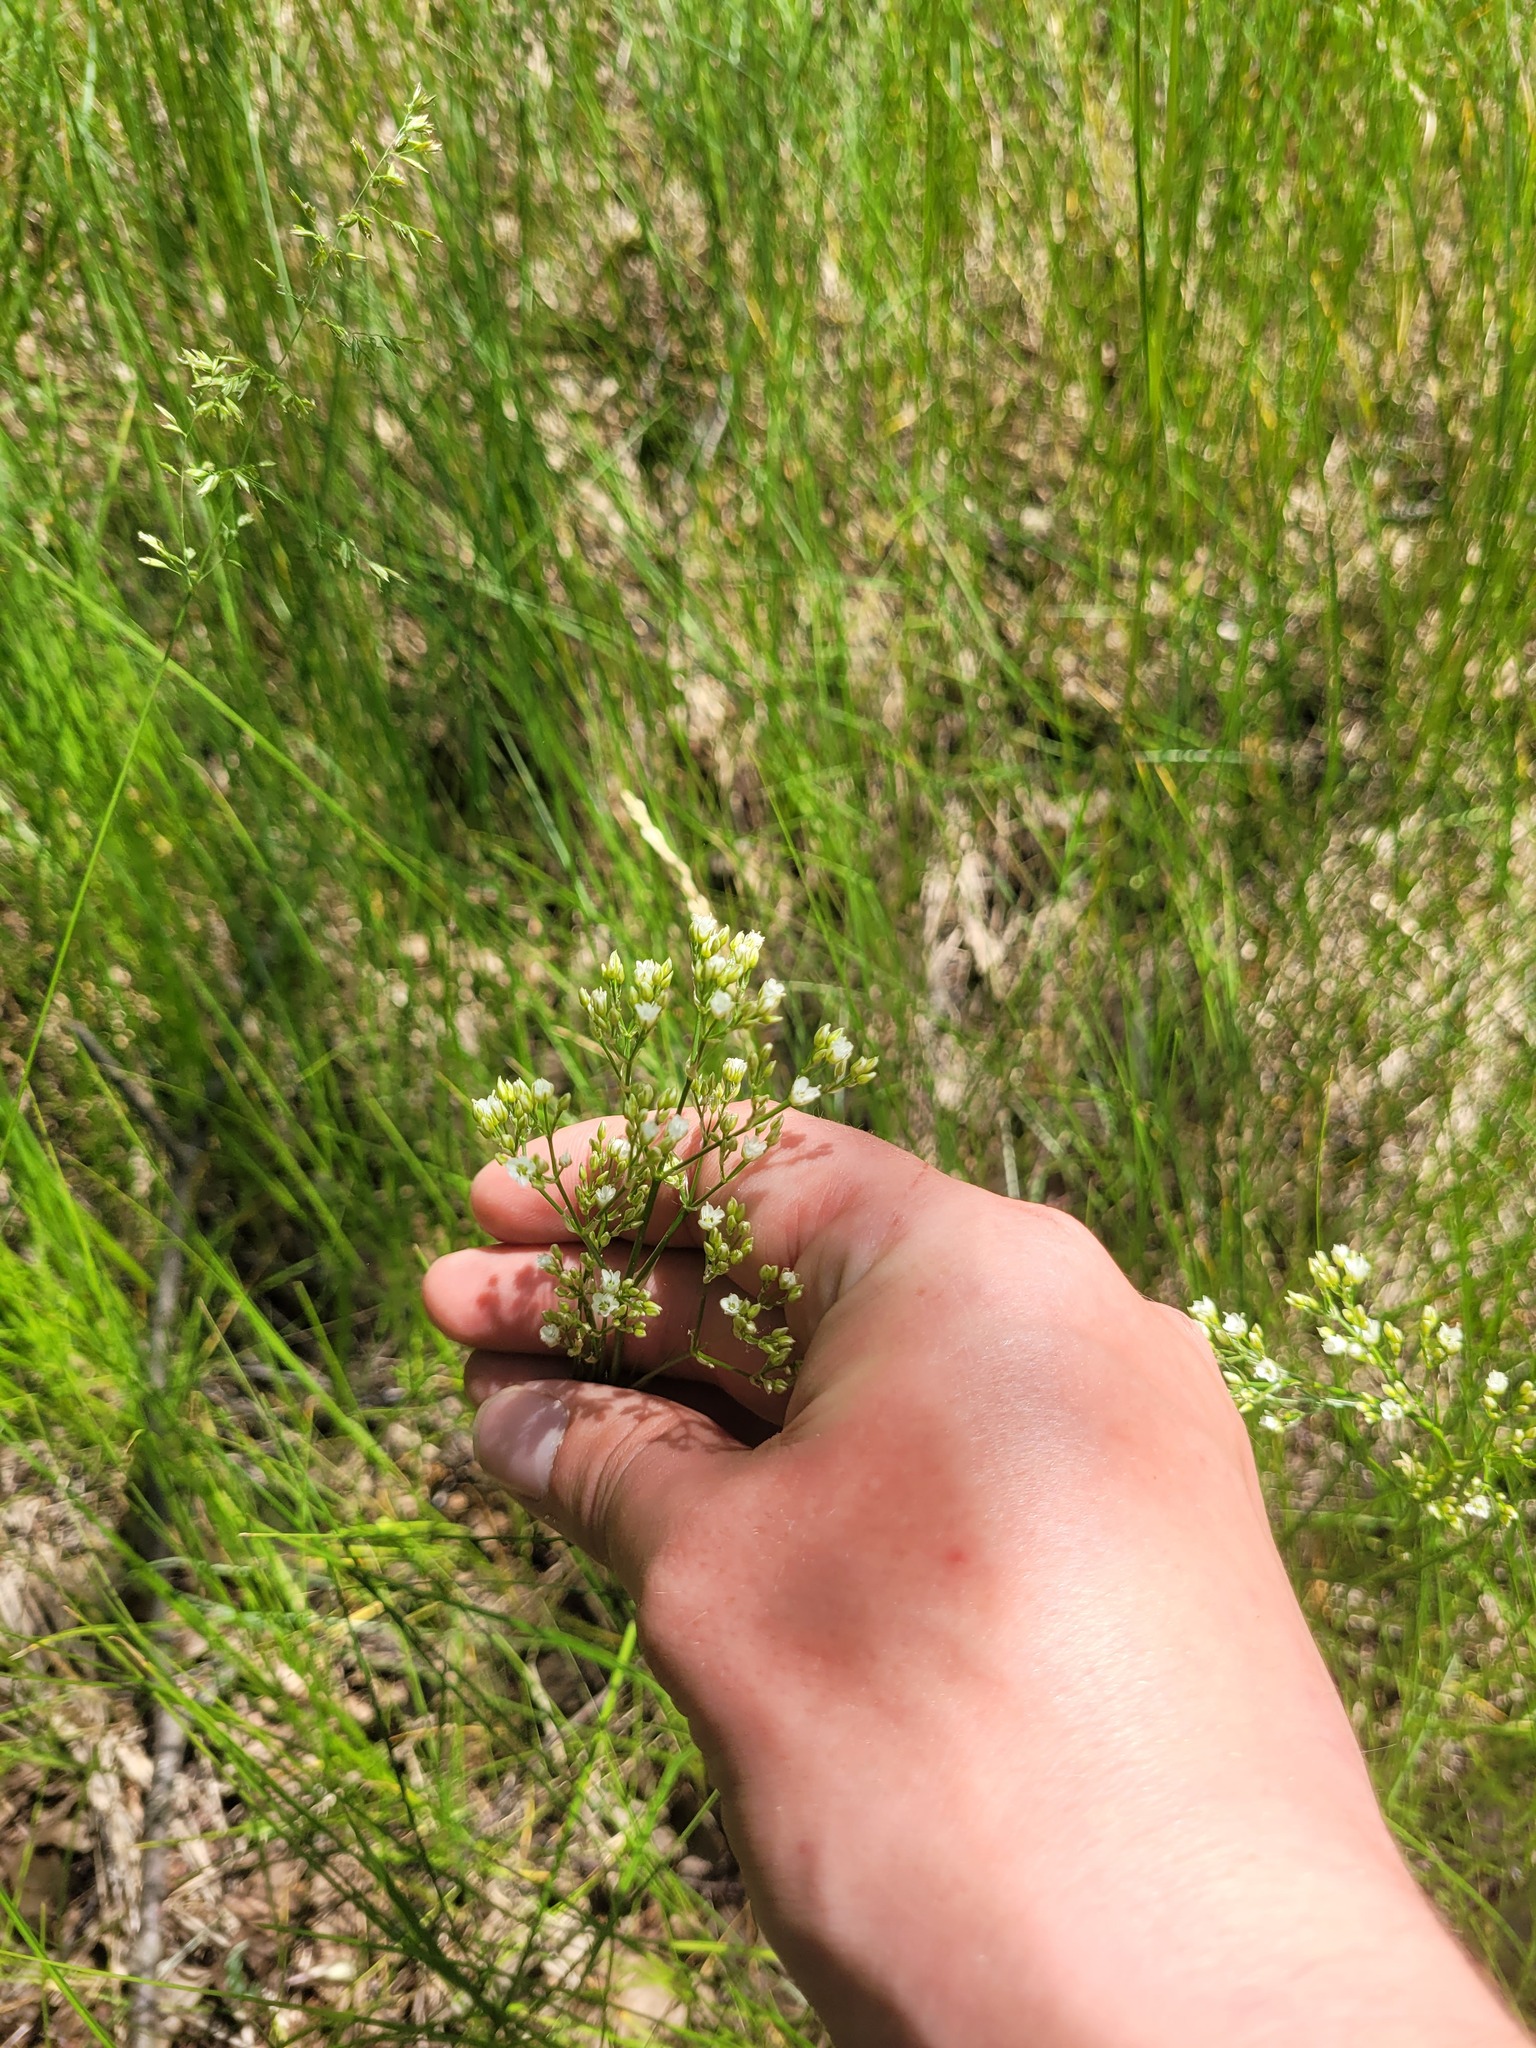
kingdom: Plantae
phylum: Tracheophyta
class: Magnoliopsida
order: Caryophyllales
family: Caryophyllaceae
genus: Eremogone
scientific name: Eremogone longifolia
